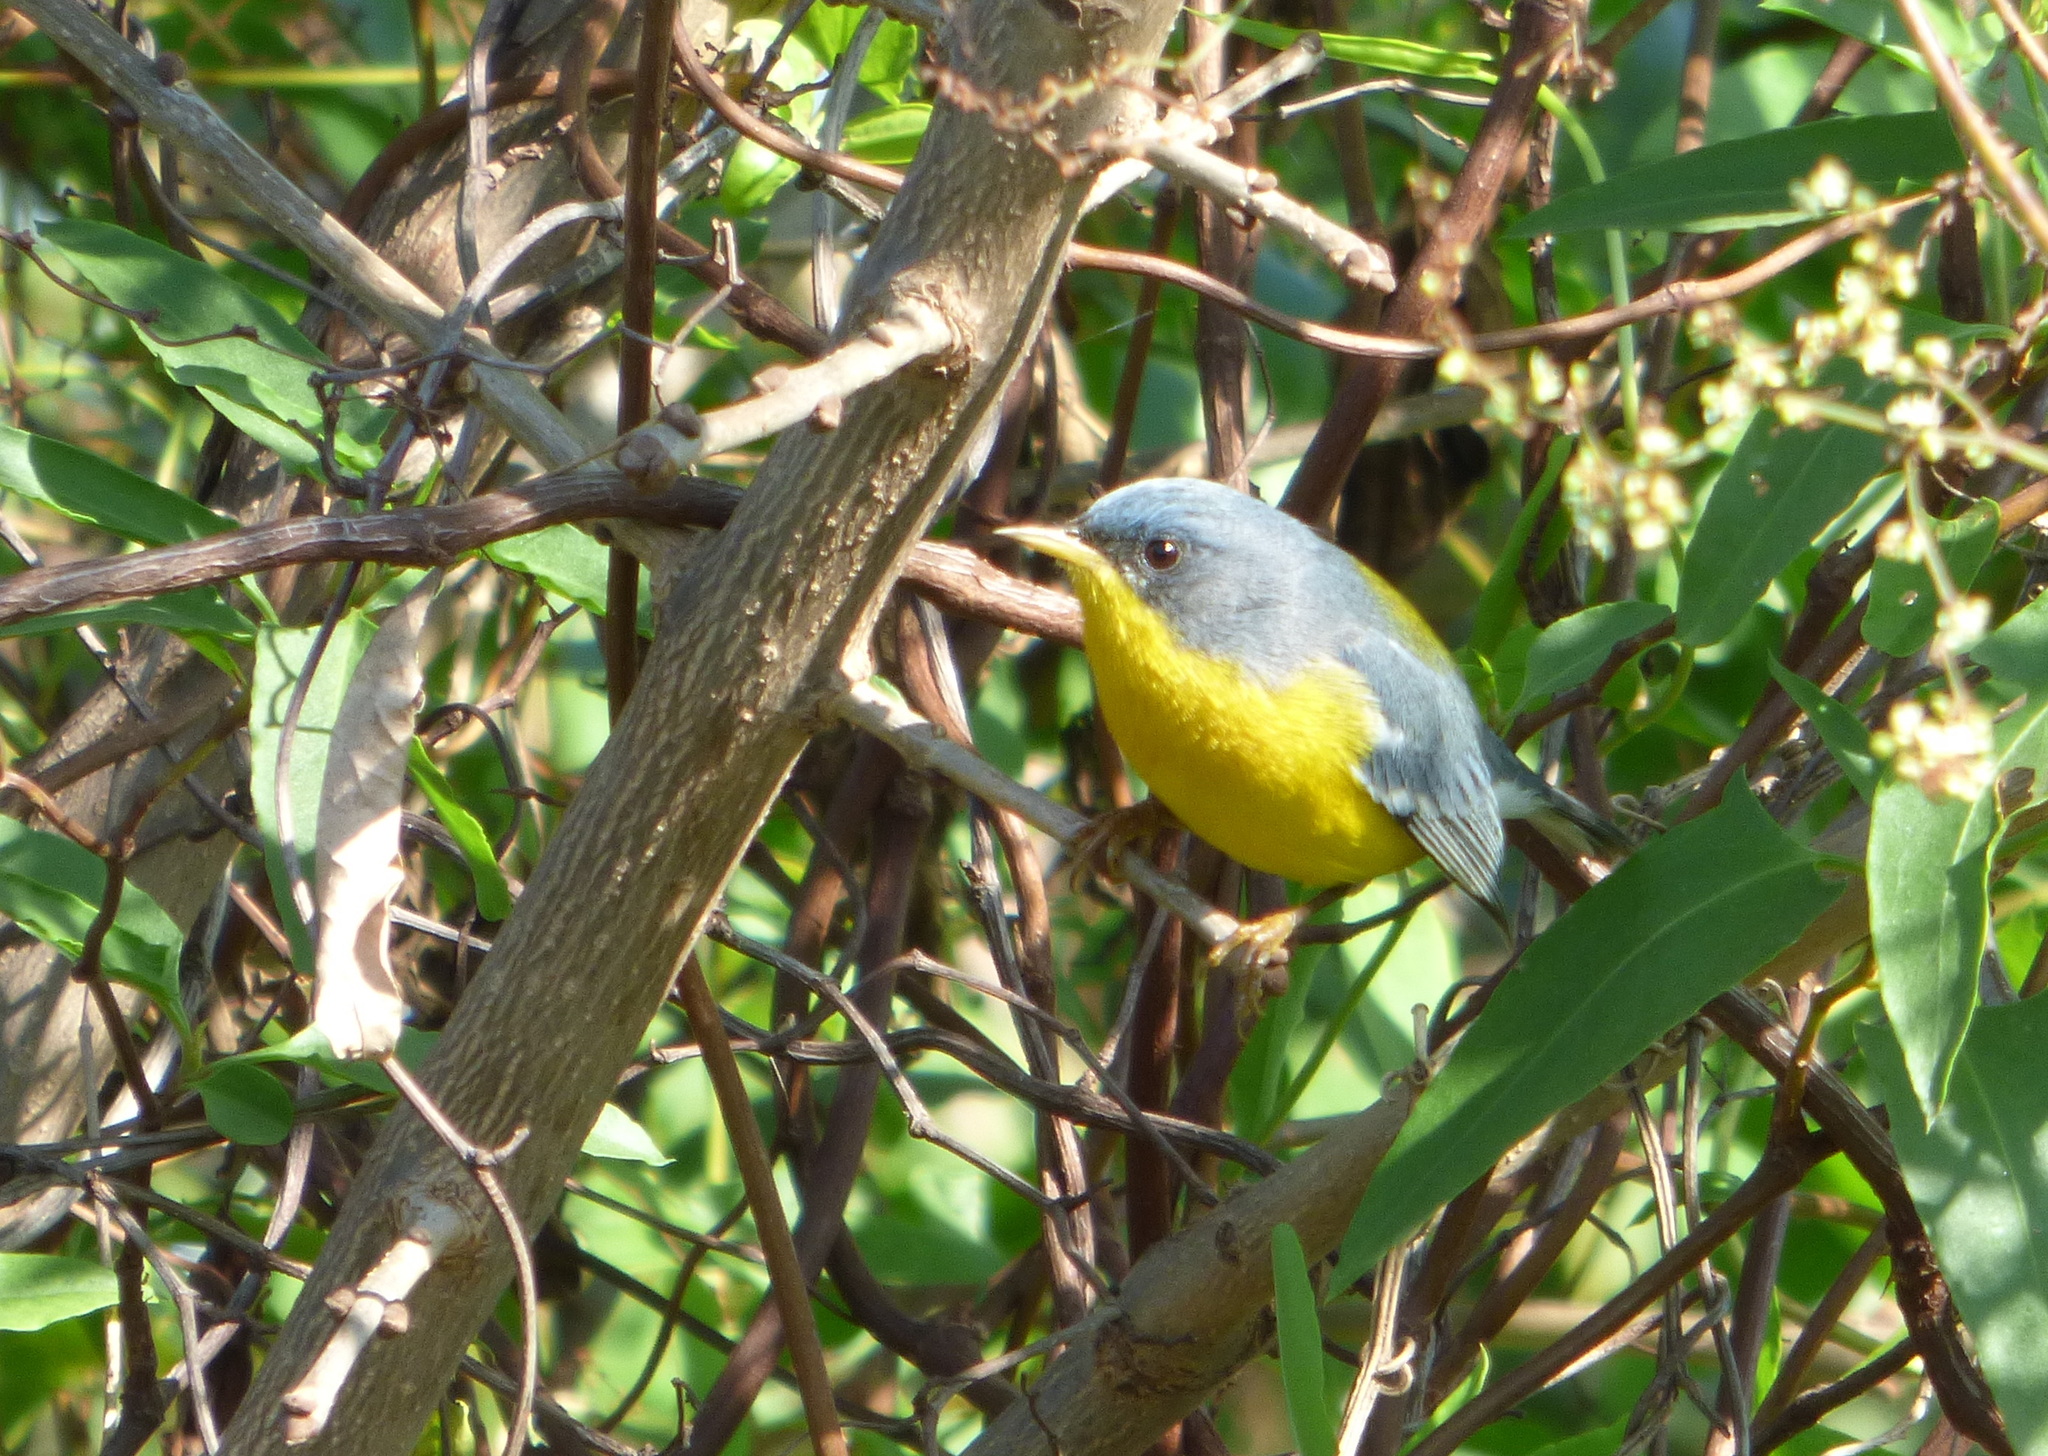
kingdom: Animalia
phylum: Chordata
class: Aves
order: Passeriformes
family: Parulidae
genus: Setophaga
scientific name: Setophaga pitiayumi
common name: Tropical parula
